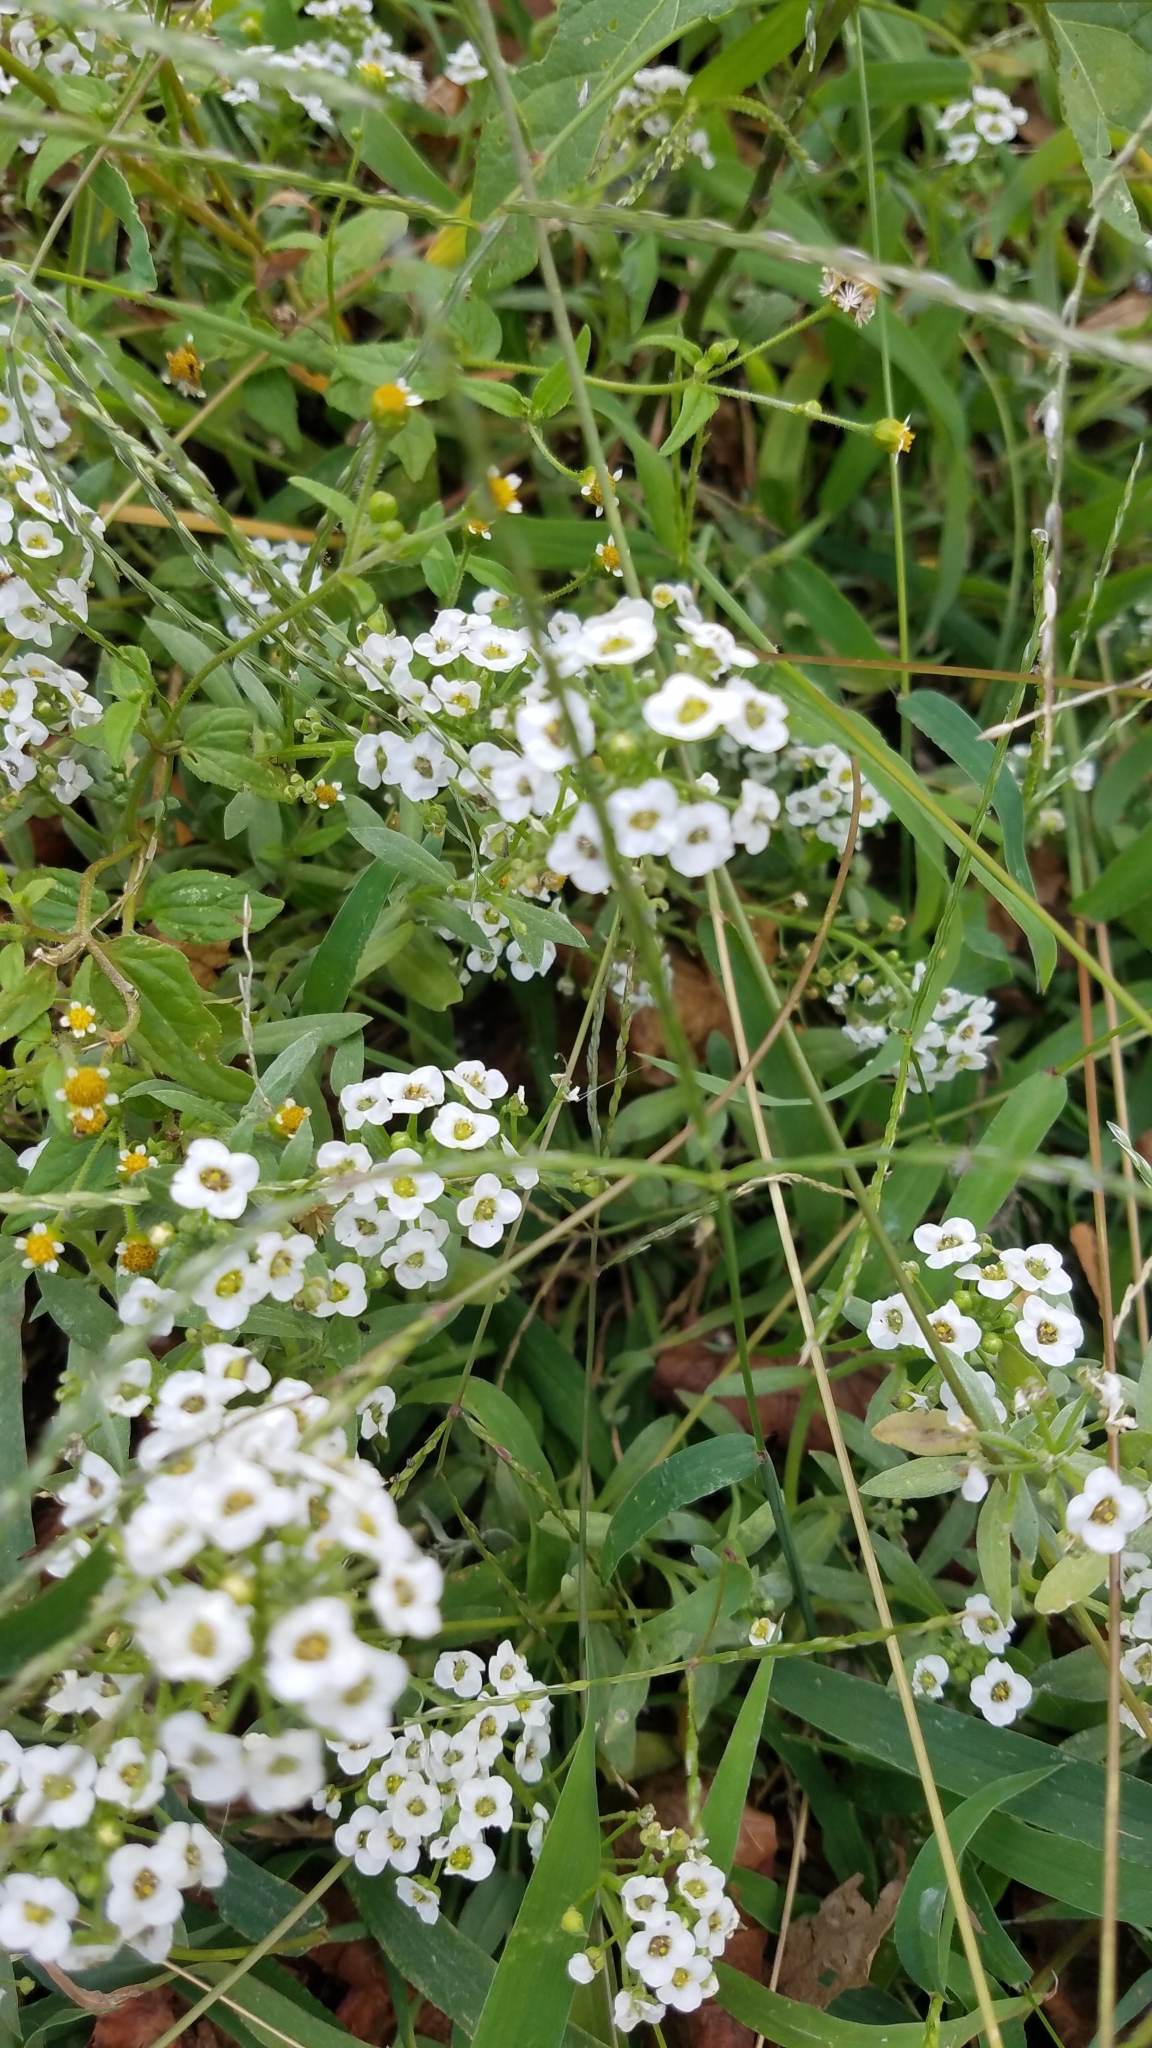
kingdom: Plantae
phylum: Tracheophyta
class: Magnoliopsida
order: Brassicales
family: Brassicaceae
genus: Lobularia
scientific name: Lobularia maritima
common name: Sweet alison
